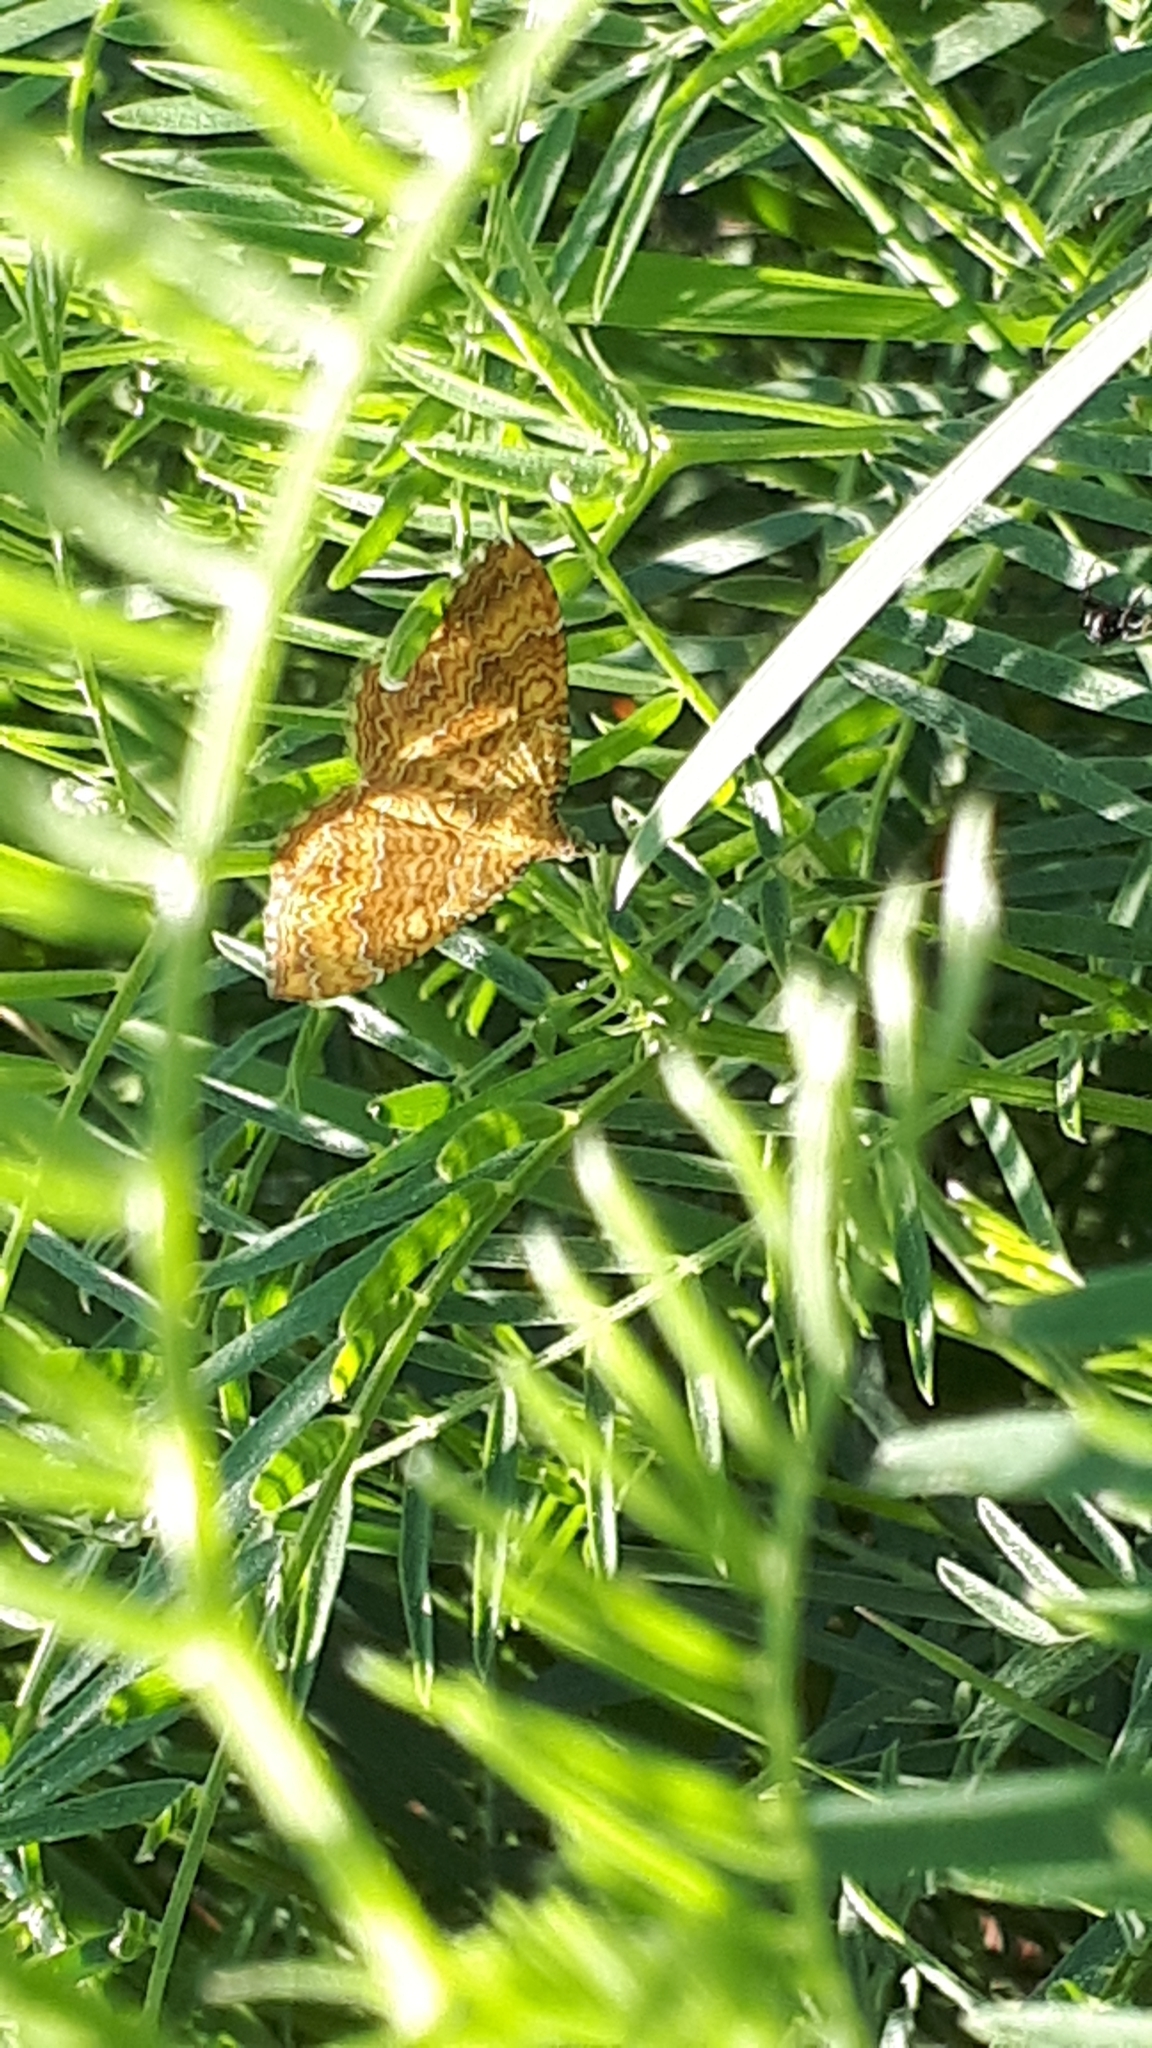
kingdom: Animalia
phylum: Arthropoda
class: Insecta
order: Lepidoptera
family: Geometridae
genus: Camptogramma
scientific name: Camptogramma bilineata
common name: Yellow shell
